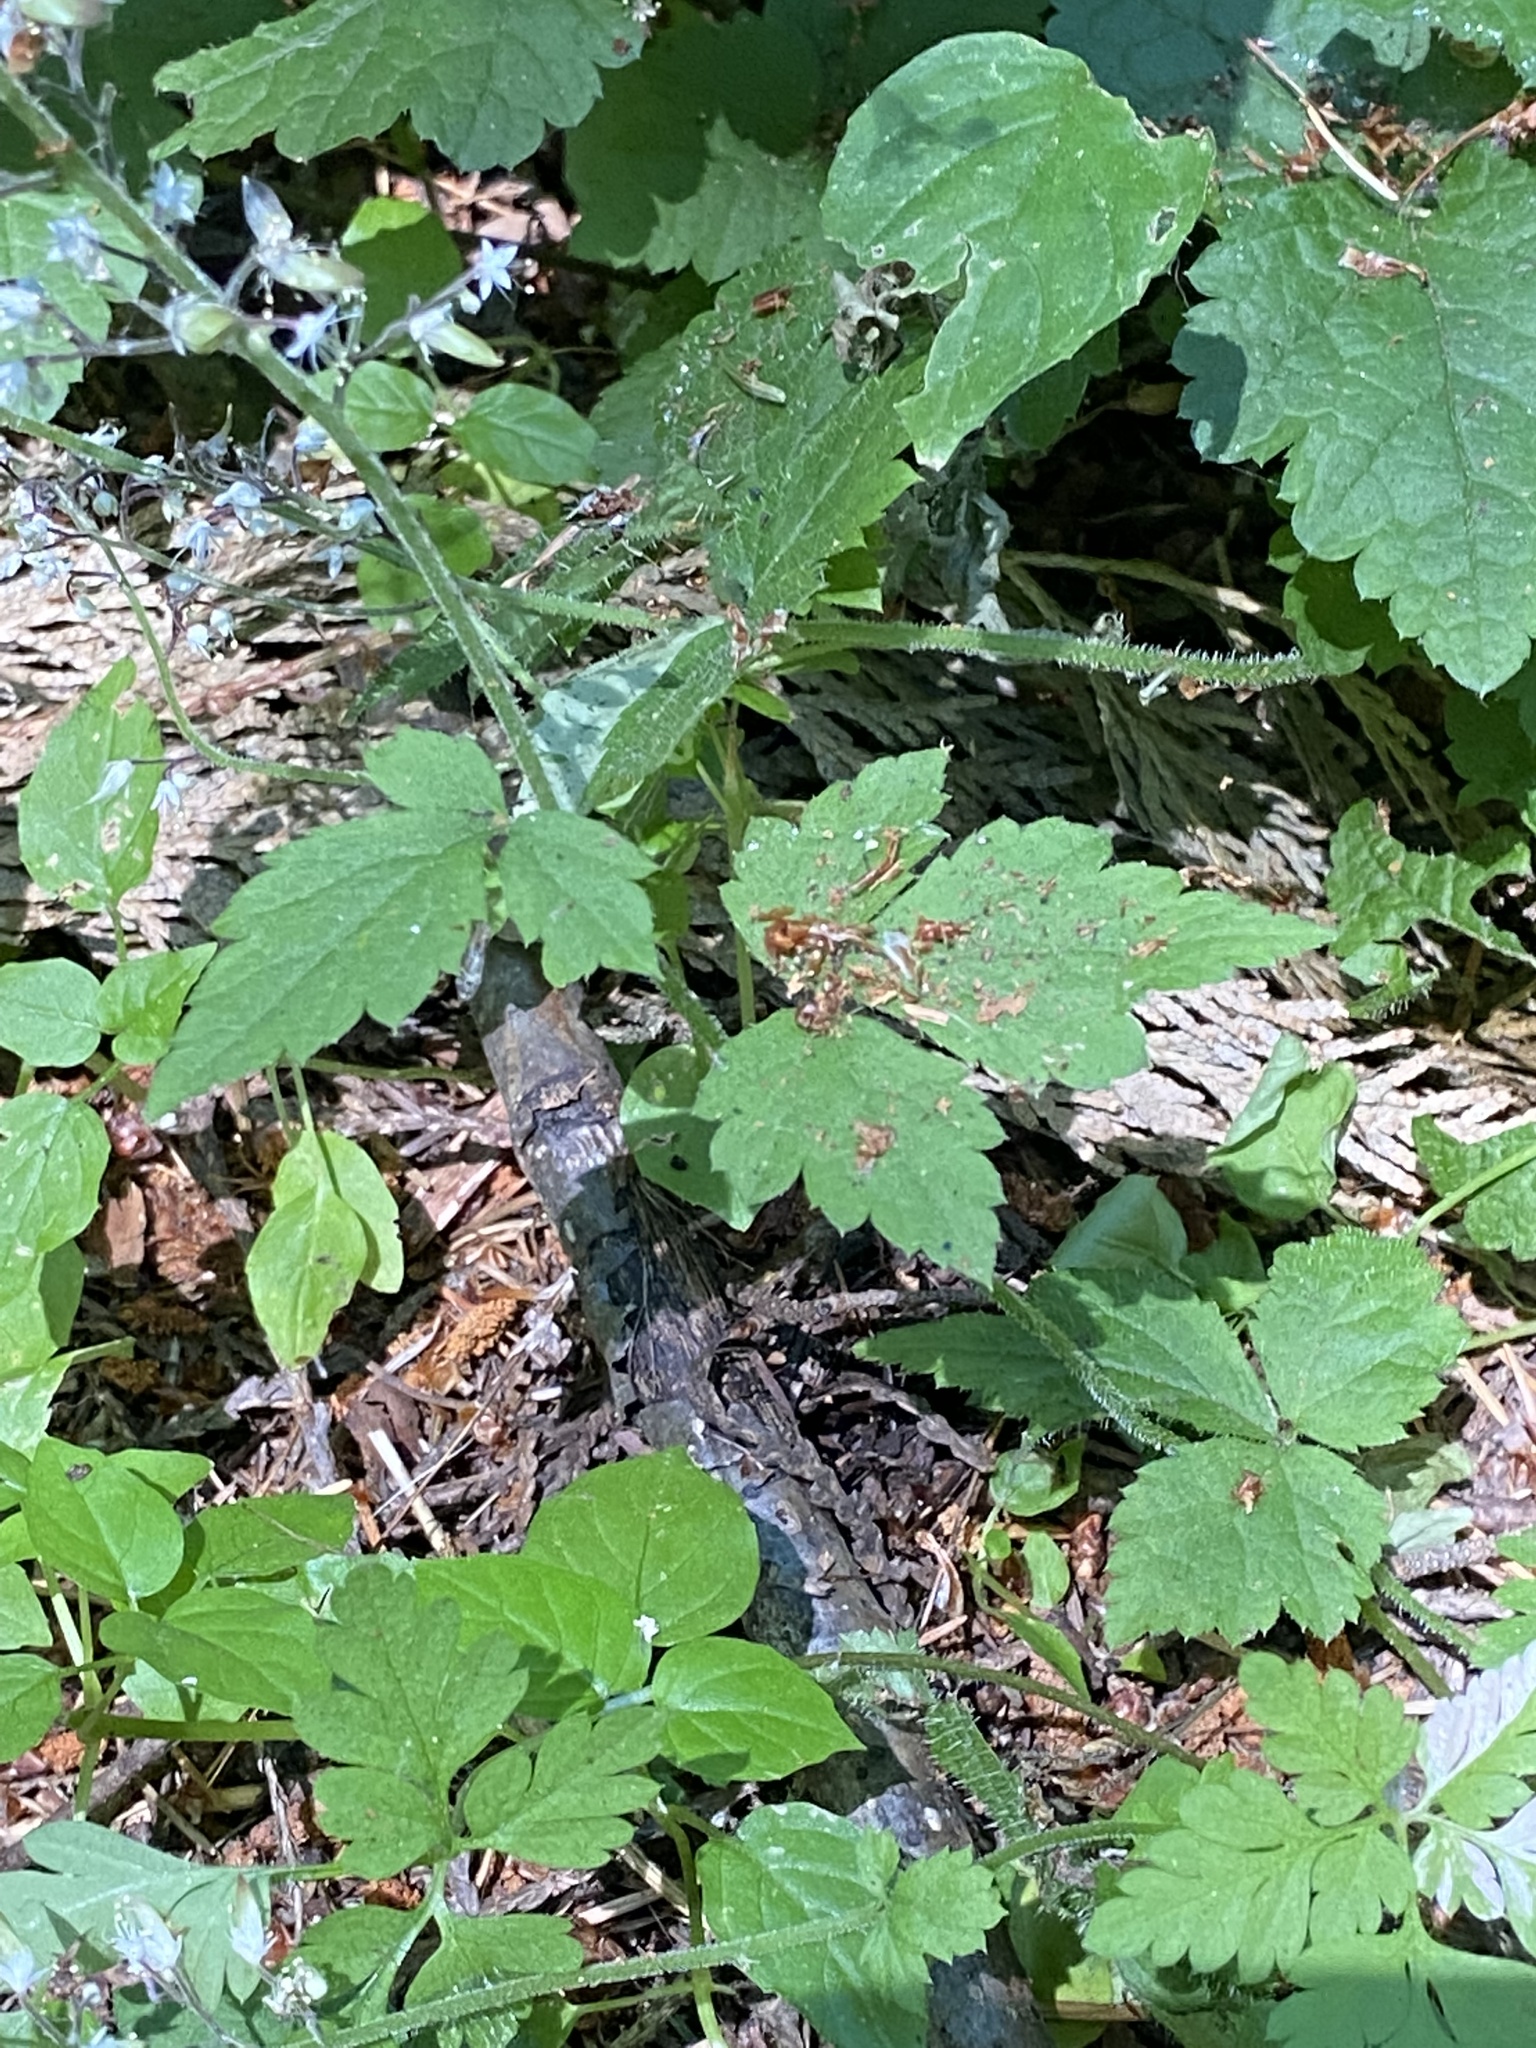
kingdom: Plantae
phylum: Tracheophyta
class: Magnoliopsida
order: Saxifragales
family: Saxifragaceae
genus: Tiarella
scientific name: Tiarella trifoliata
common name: Sugar-scoop
